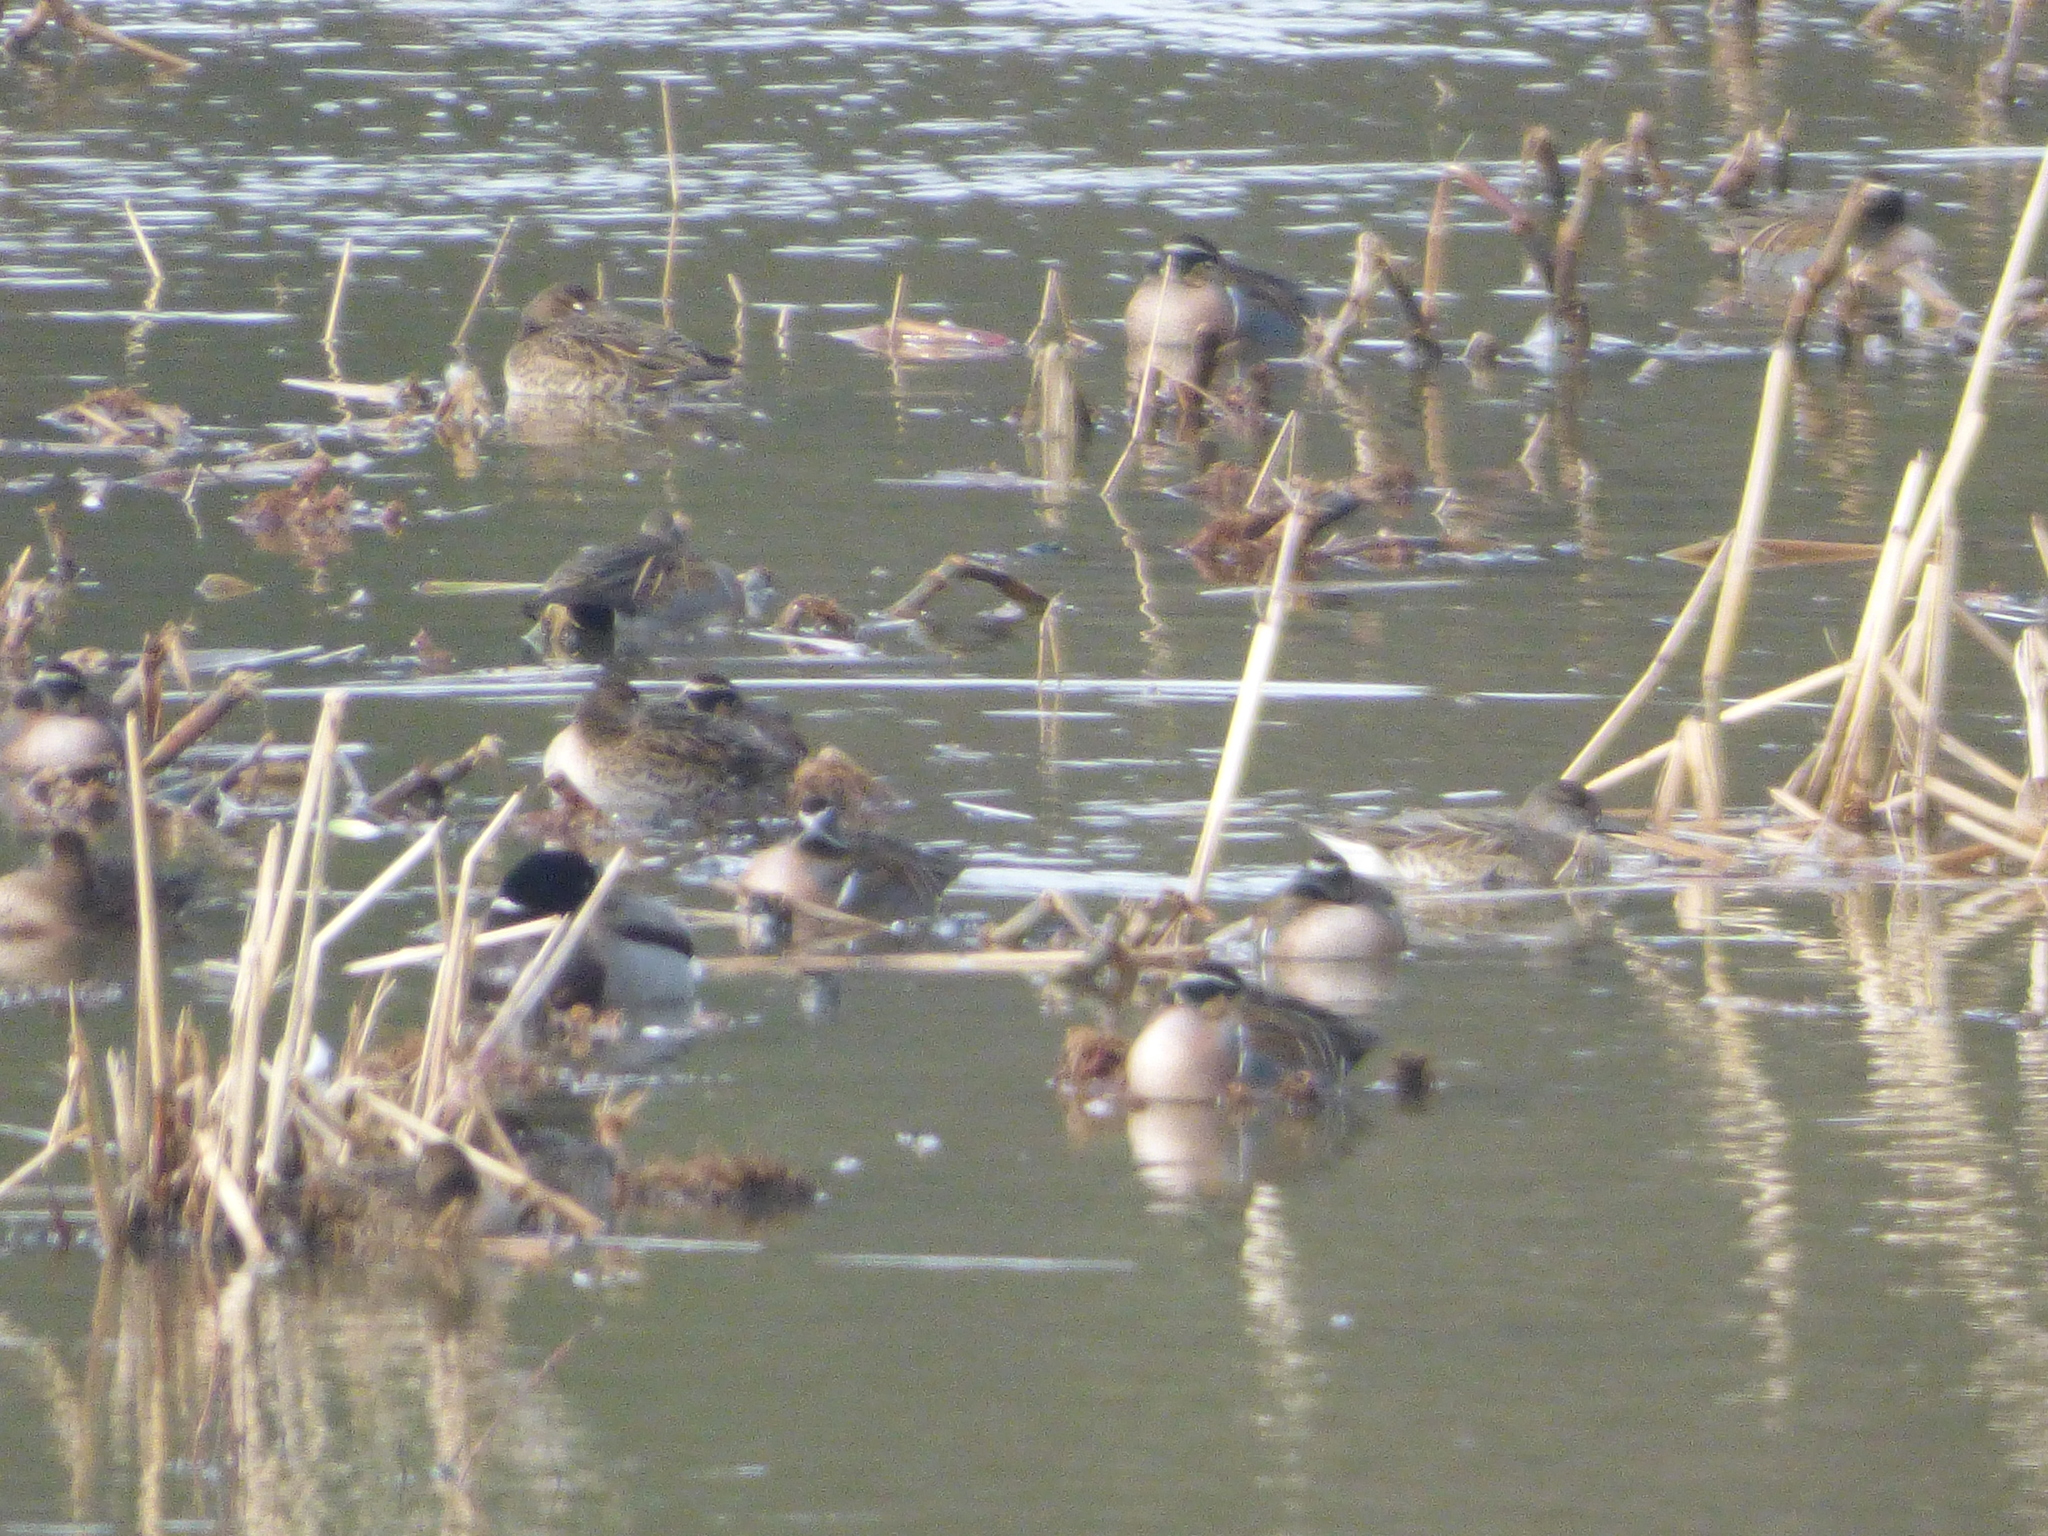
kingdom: Animalia
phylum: Chordata
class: Aves
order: Anseriformes
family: Anatidae
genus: Sibirionetta
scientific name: Sibirionetta formosa
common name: Baikal teal
